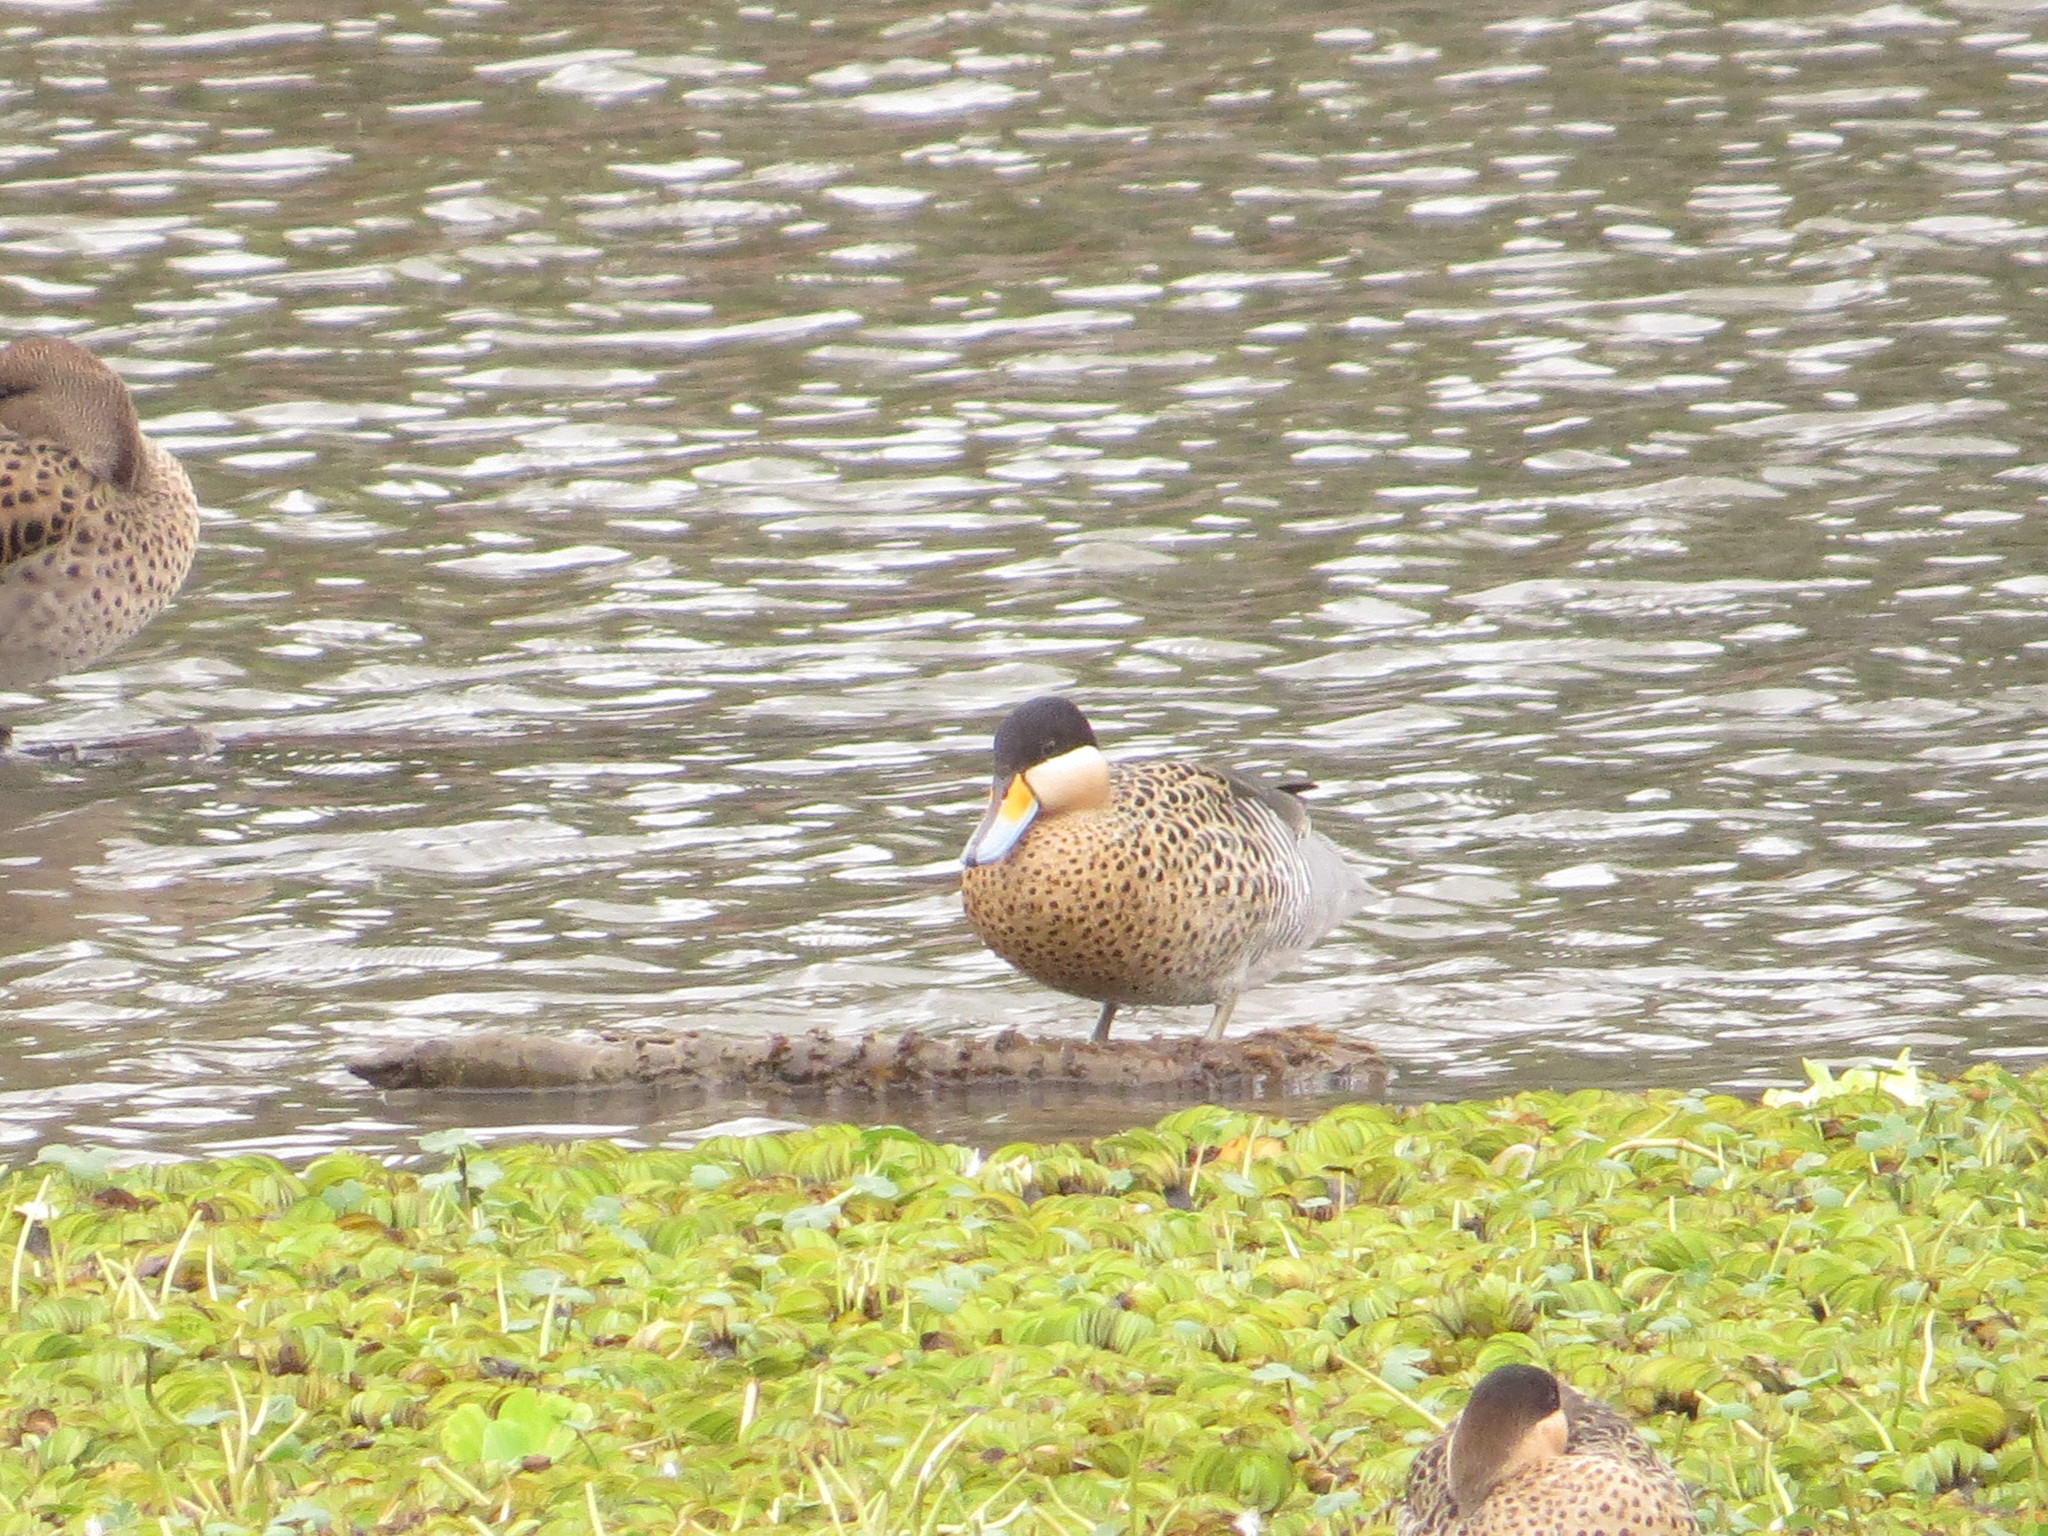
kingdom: Animalia
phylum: Chordata
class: Aves
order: Anseriformes
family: Anatidae
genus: Spatula
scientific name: Spatula versicolor
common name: Silver teal
